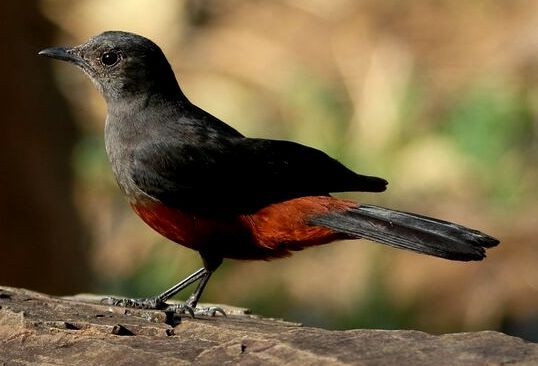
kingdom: Animalia
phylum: Chordata
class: Aves
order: Passeriformes
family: Muscicapidae
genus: Thamnolaea
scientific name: Thamnolaea cinnamomeiventris
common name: Mocking cliff chat
